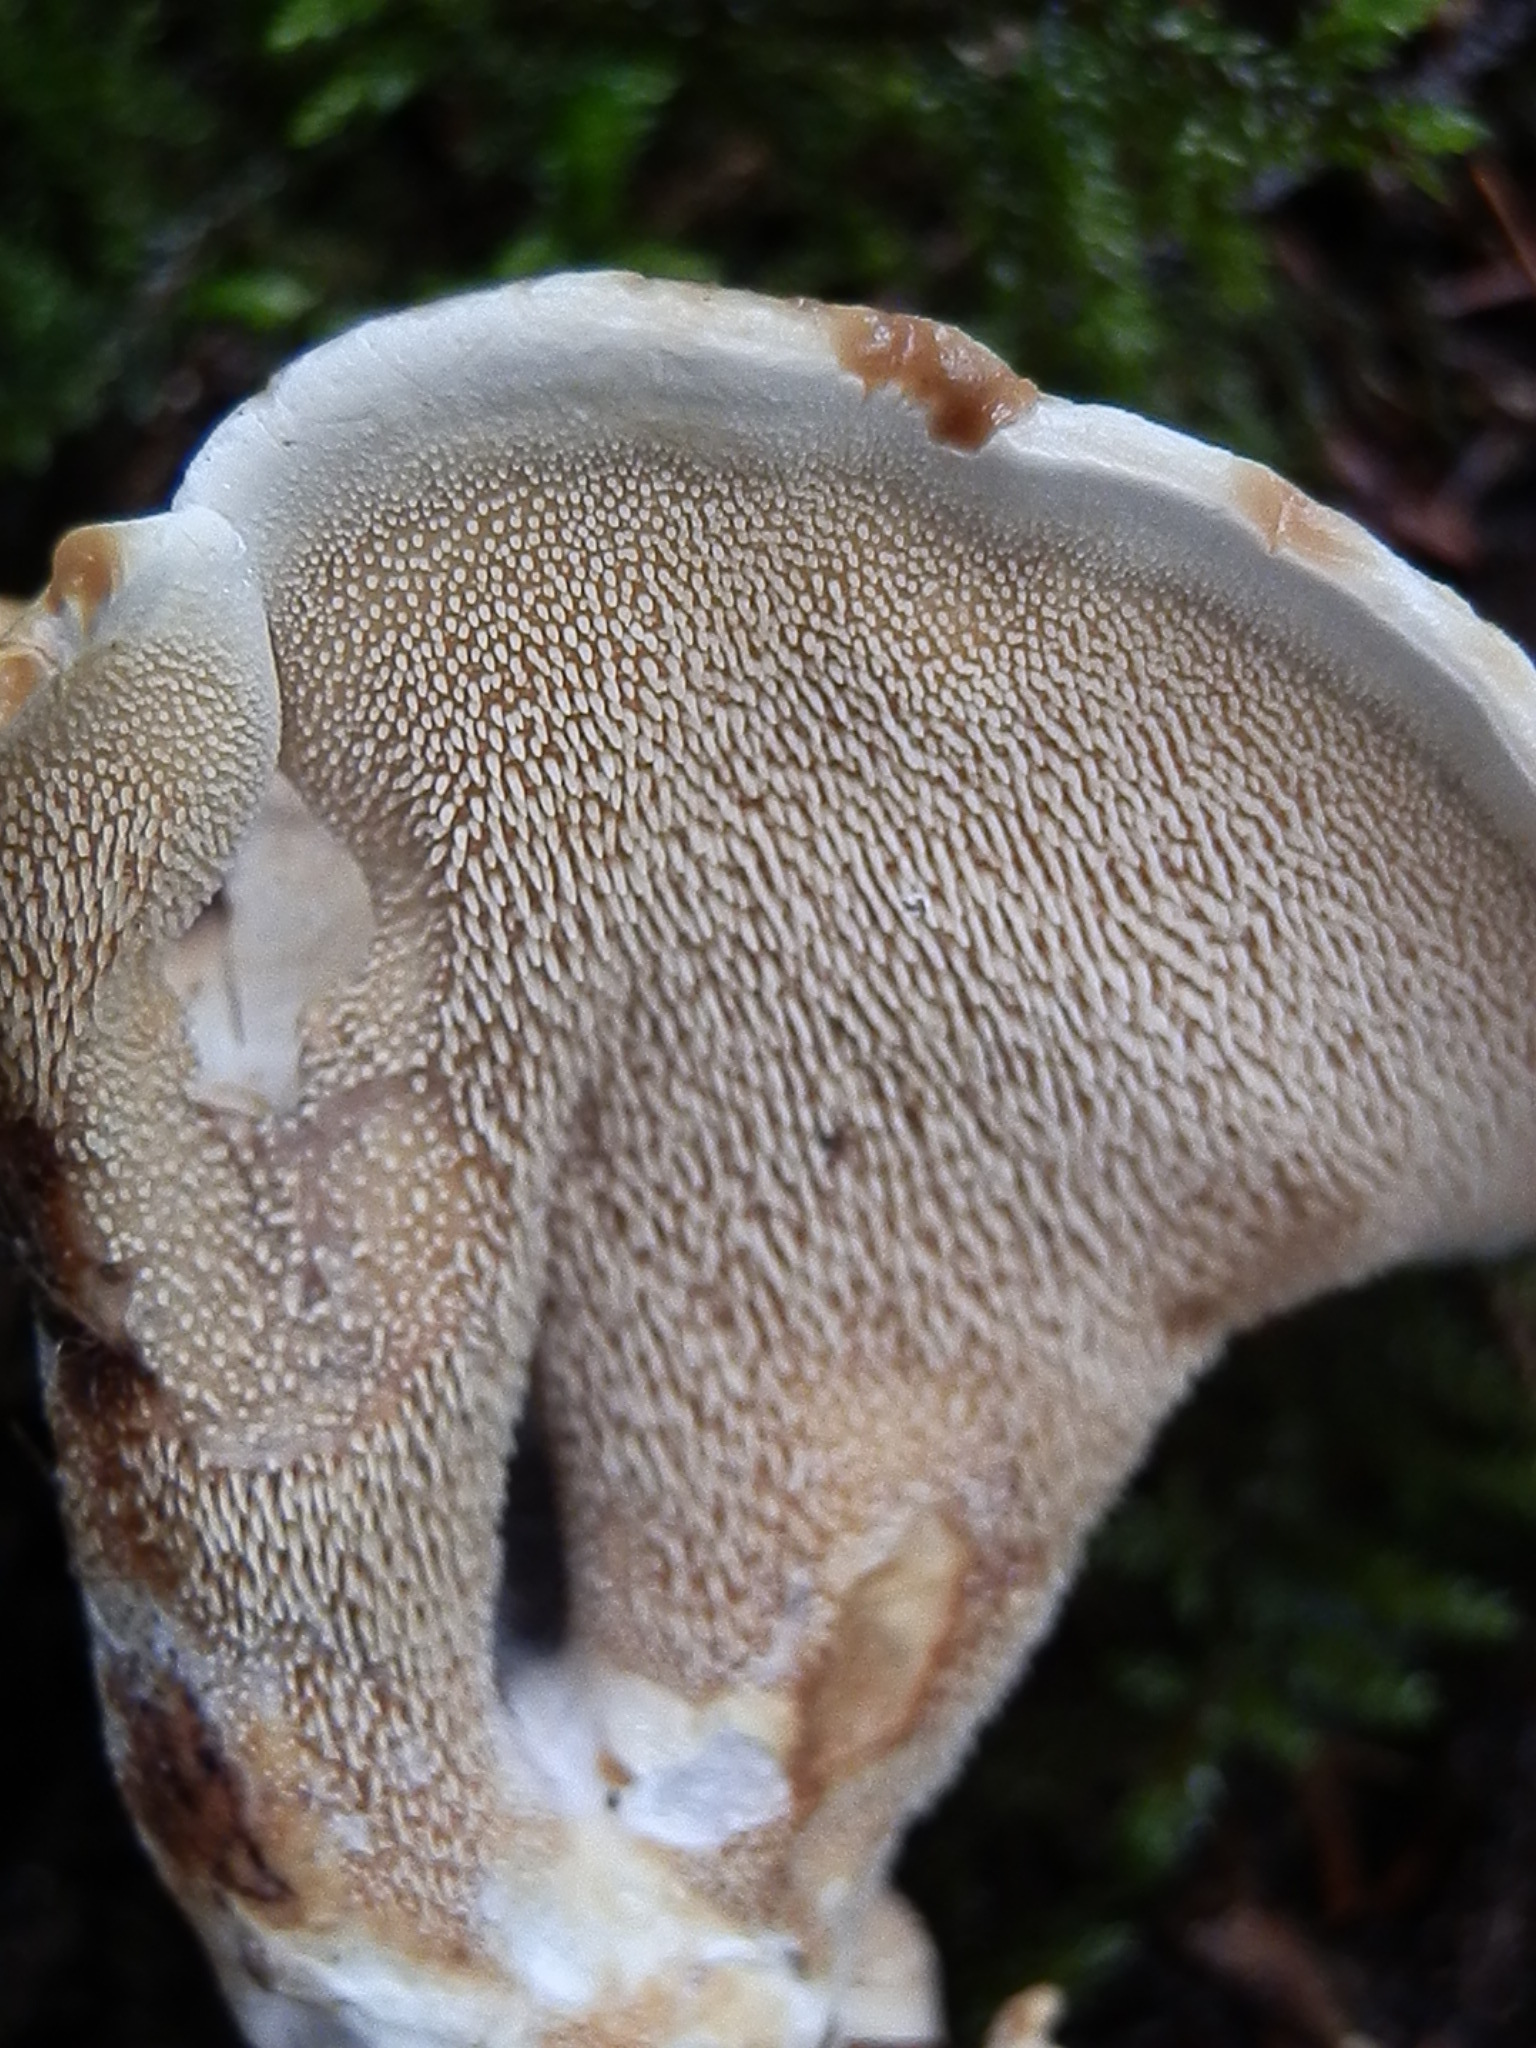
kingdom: Fungi
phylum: Basidiomycota
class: Agaricomycetes
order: Thelephorales
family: Bankeraceae
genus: Hydnellum
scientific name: Hydnellum concrescens
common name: Zoned tooth
